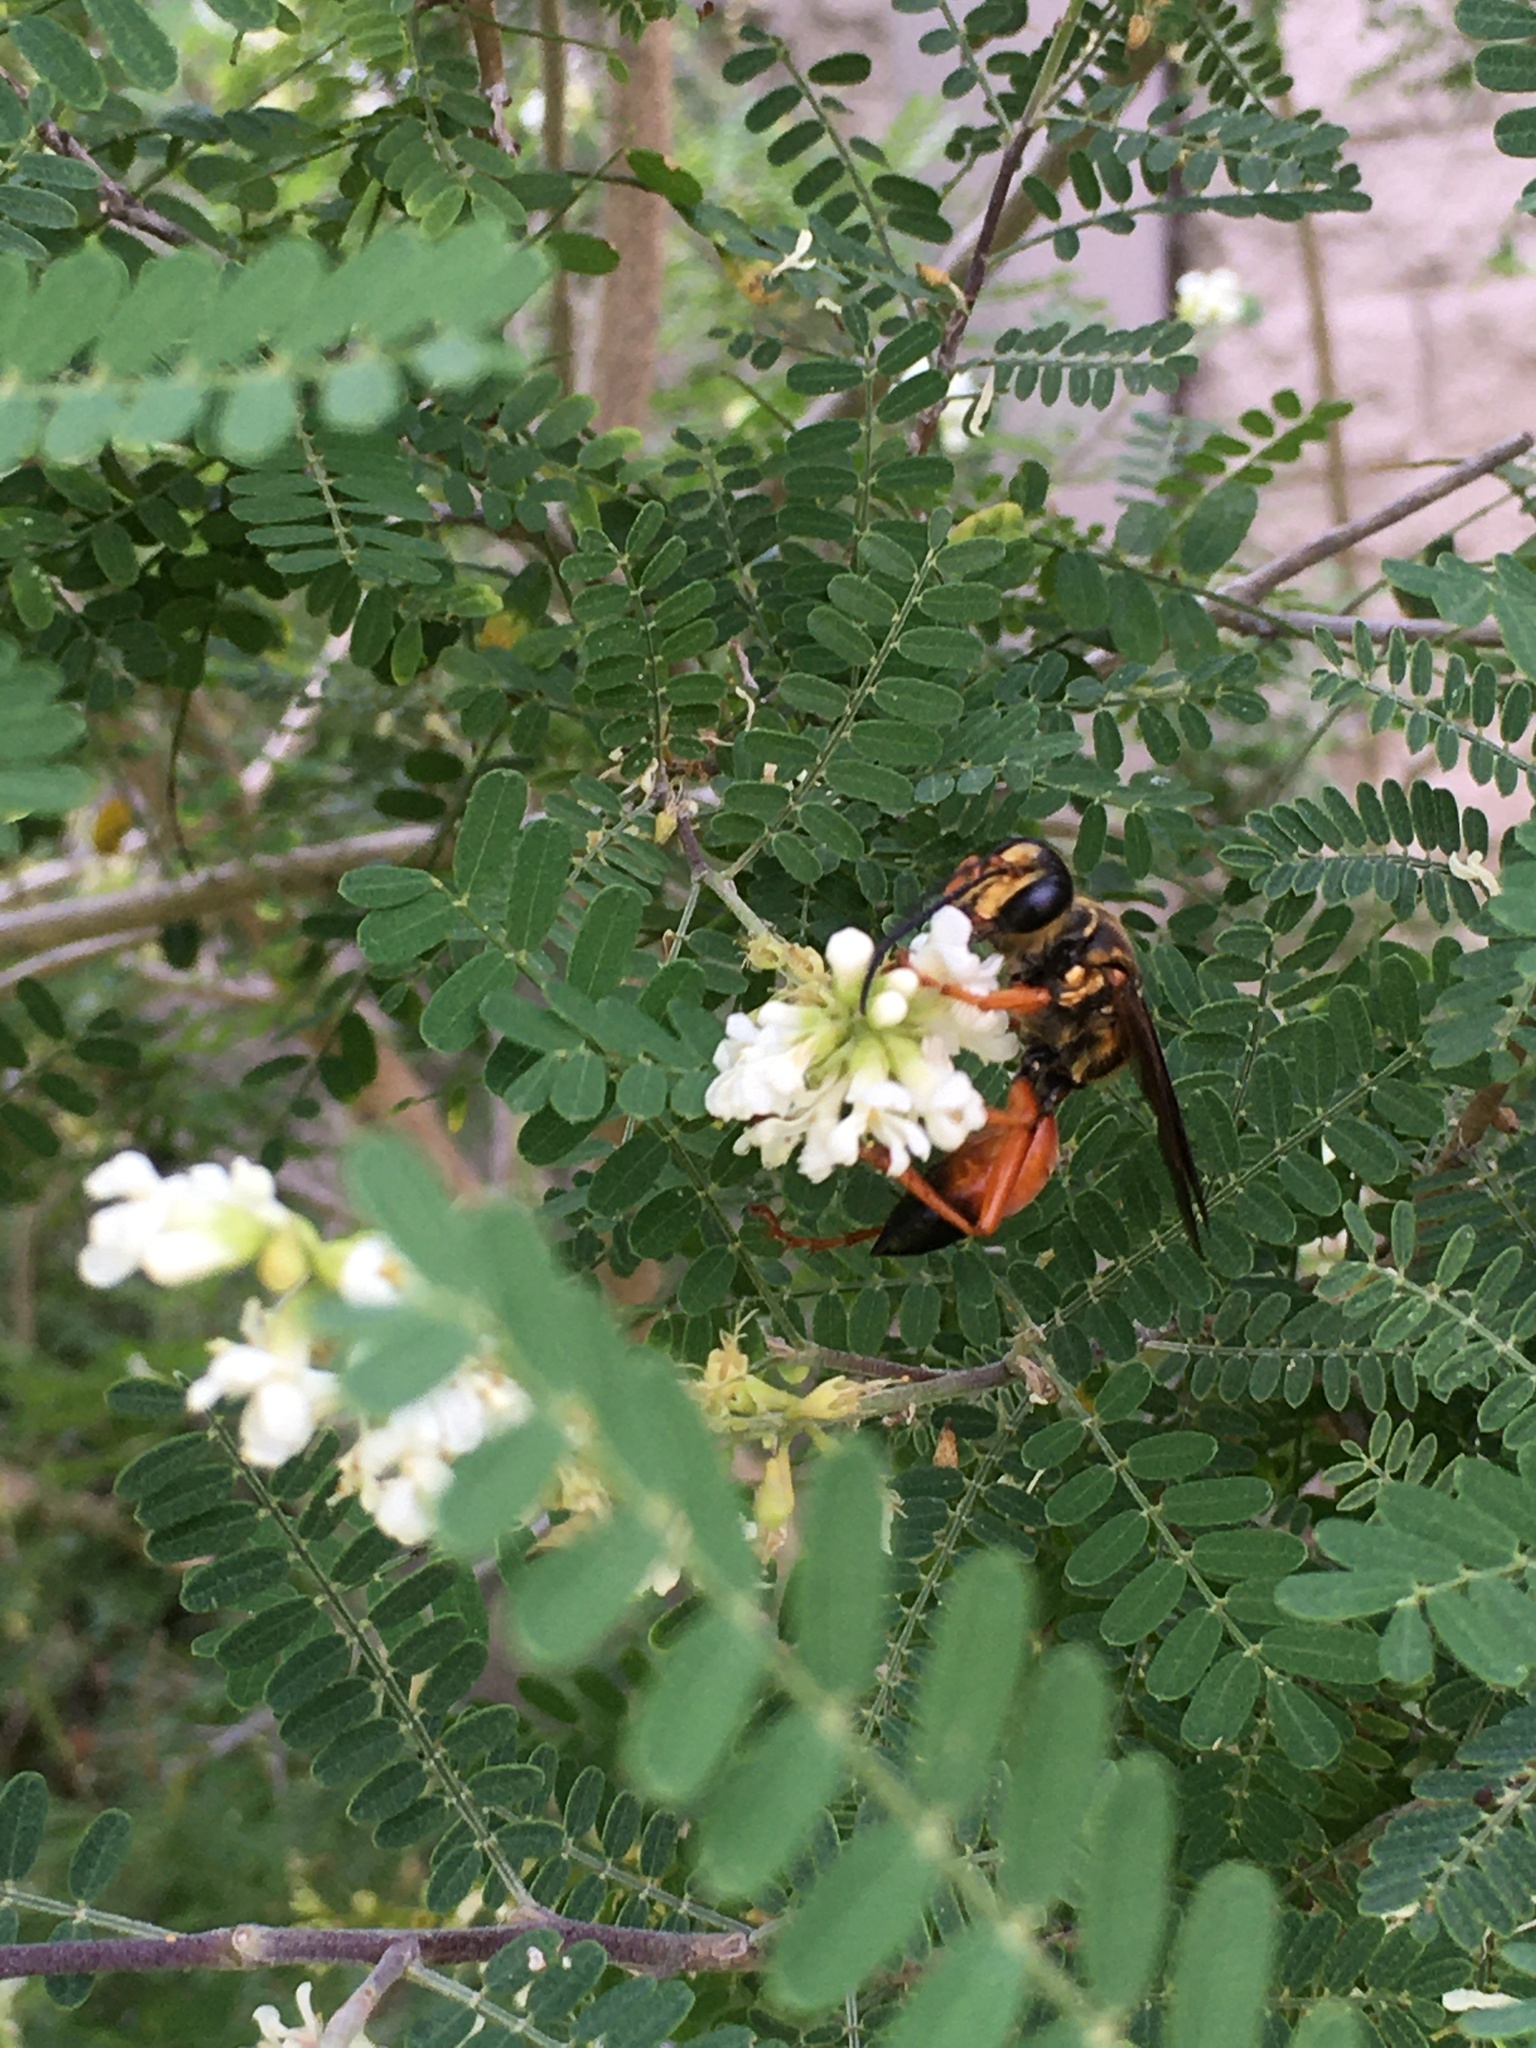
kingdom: Animalia
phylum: Arthropoda
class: Insecta
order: Hymenoptera
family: Sphecidae
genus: Sphex
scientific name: Sphex ichneumoneus
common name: Great golden digger wasp
